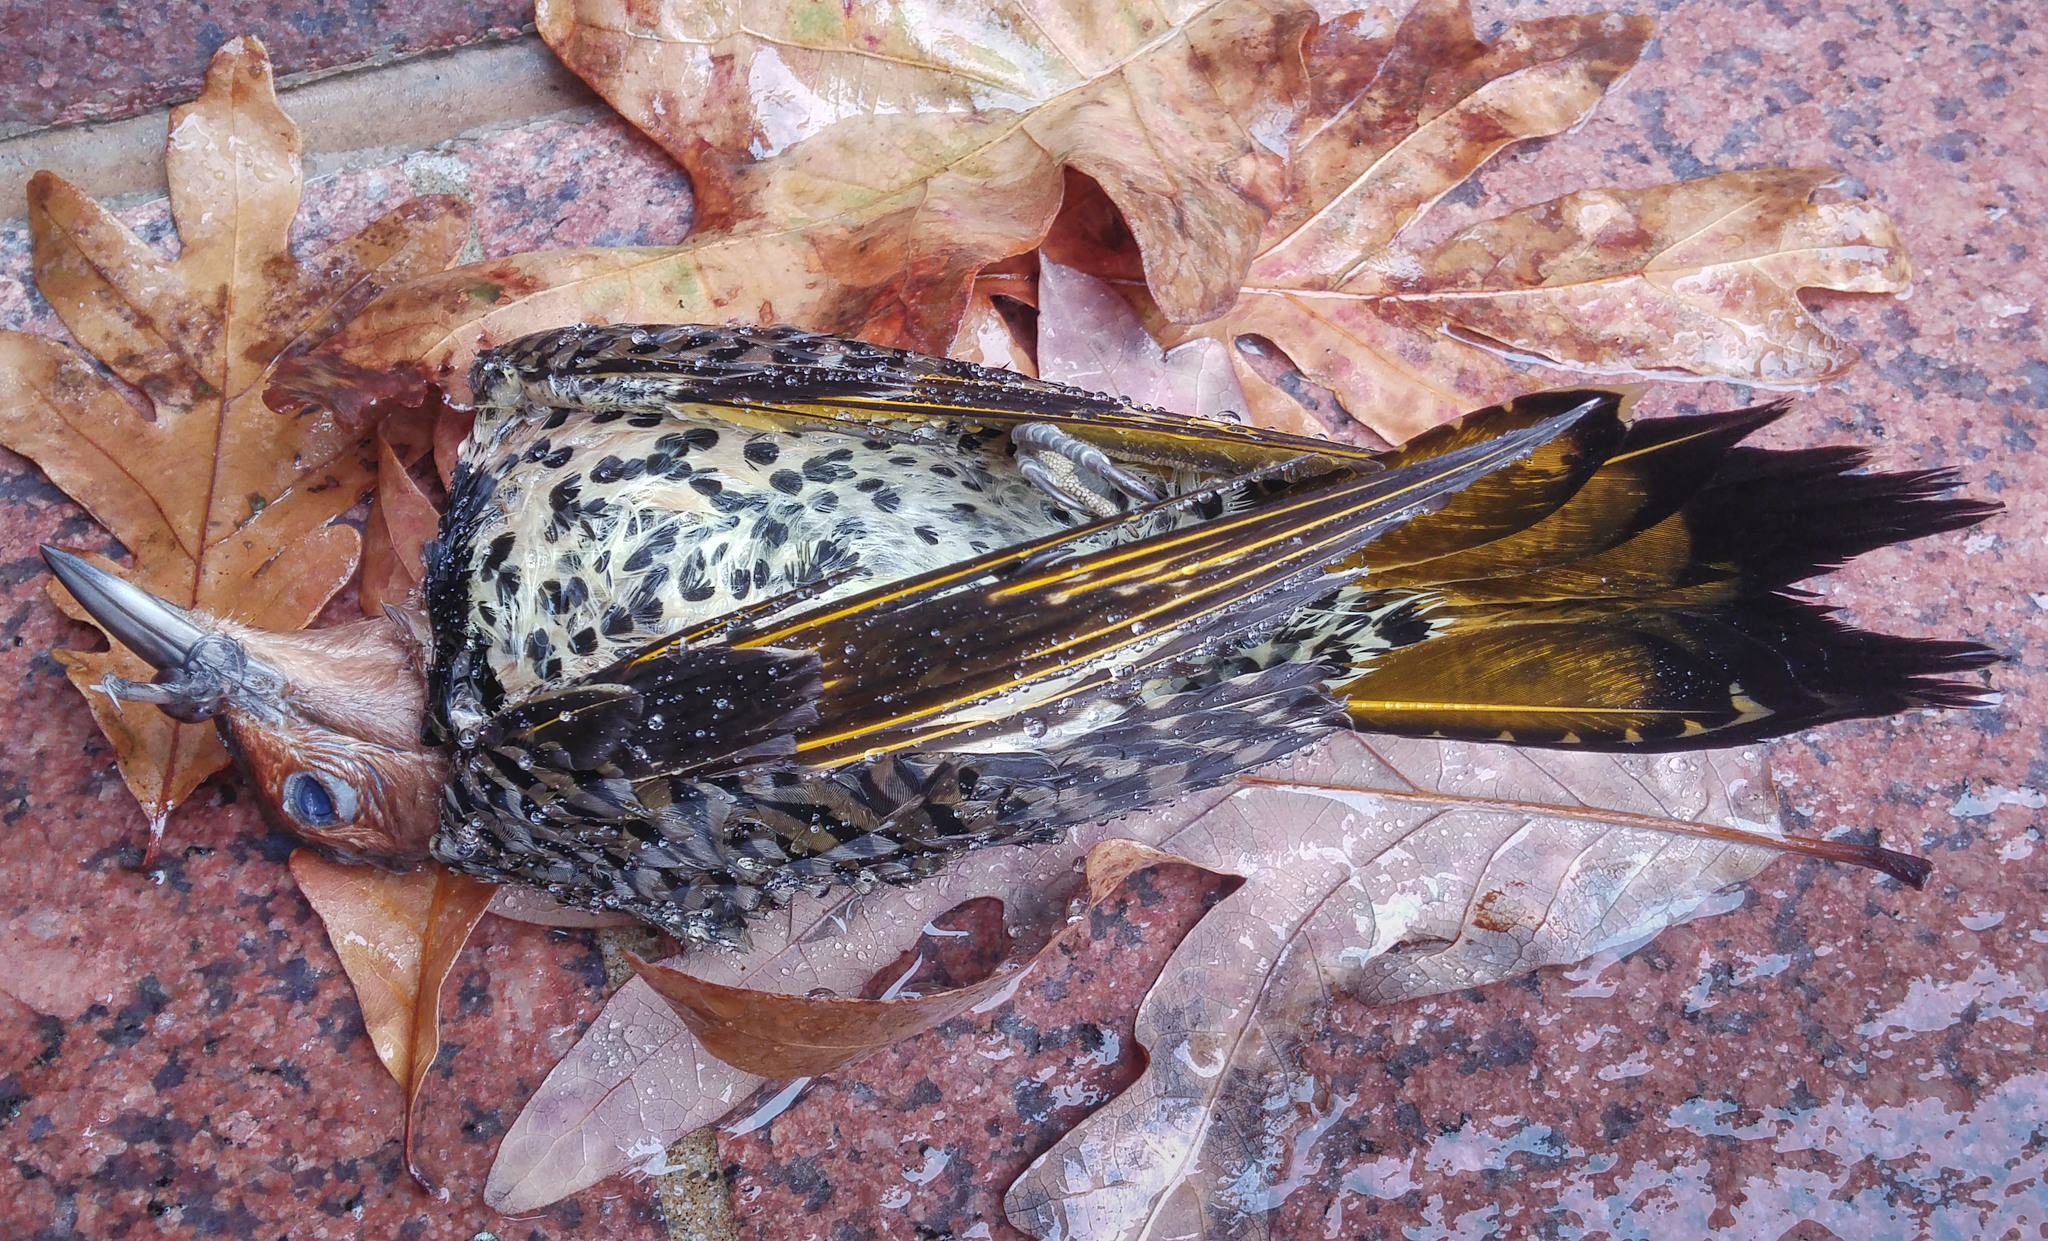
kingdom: Animalia
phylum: Chordata
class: Aves
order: Piciformes
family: Picidae
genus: Colaptes
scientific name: Colaptes auratus
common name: Northern flicker
